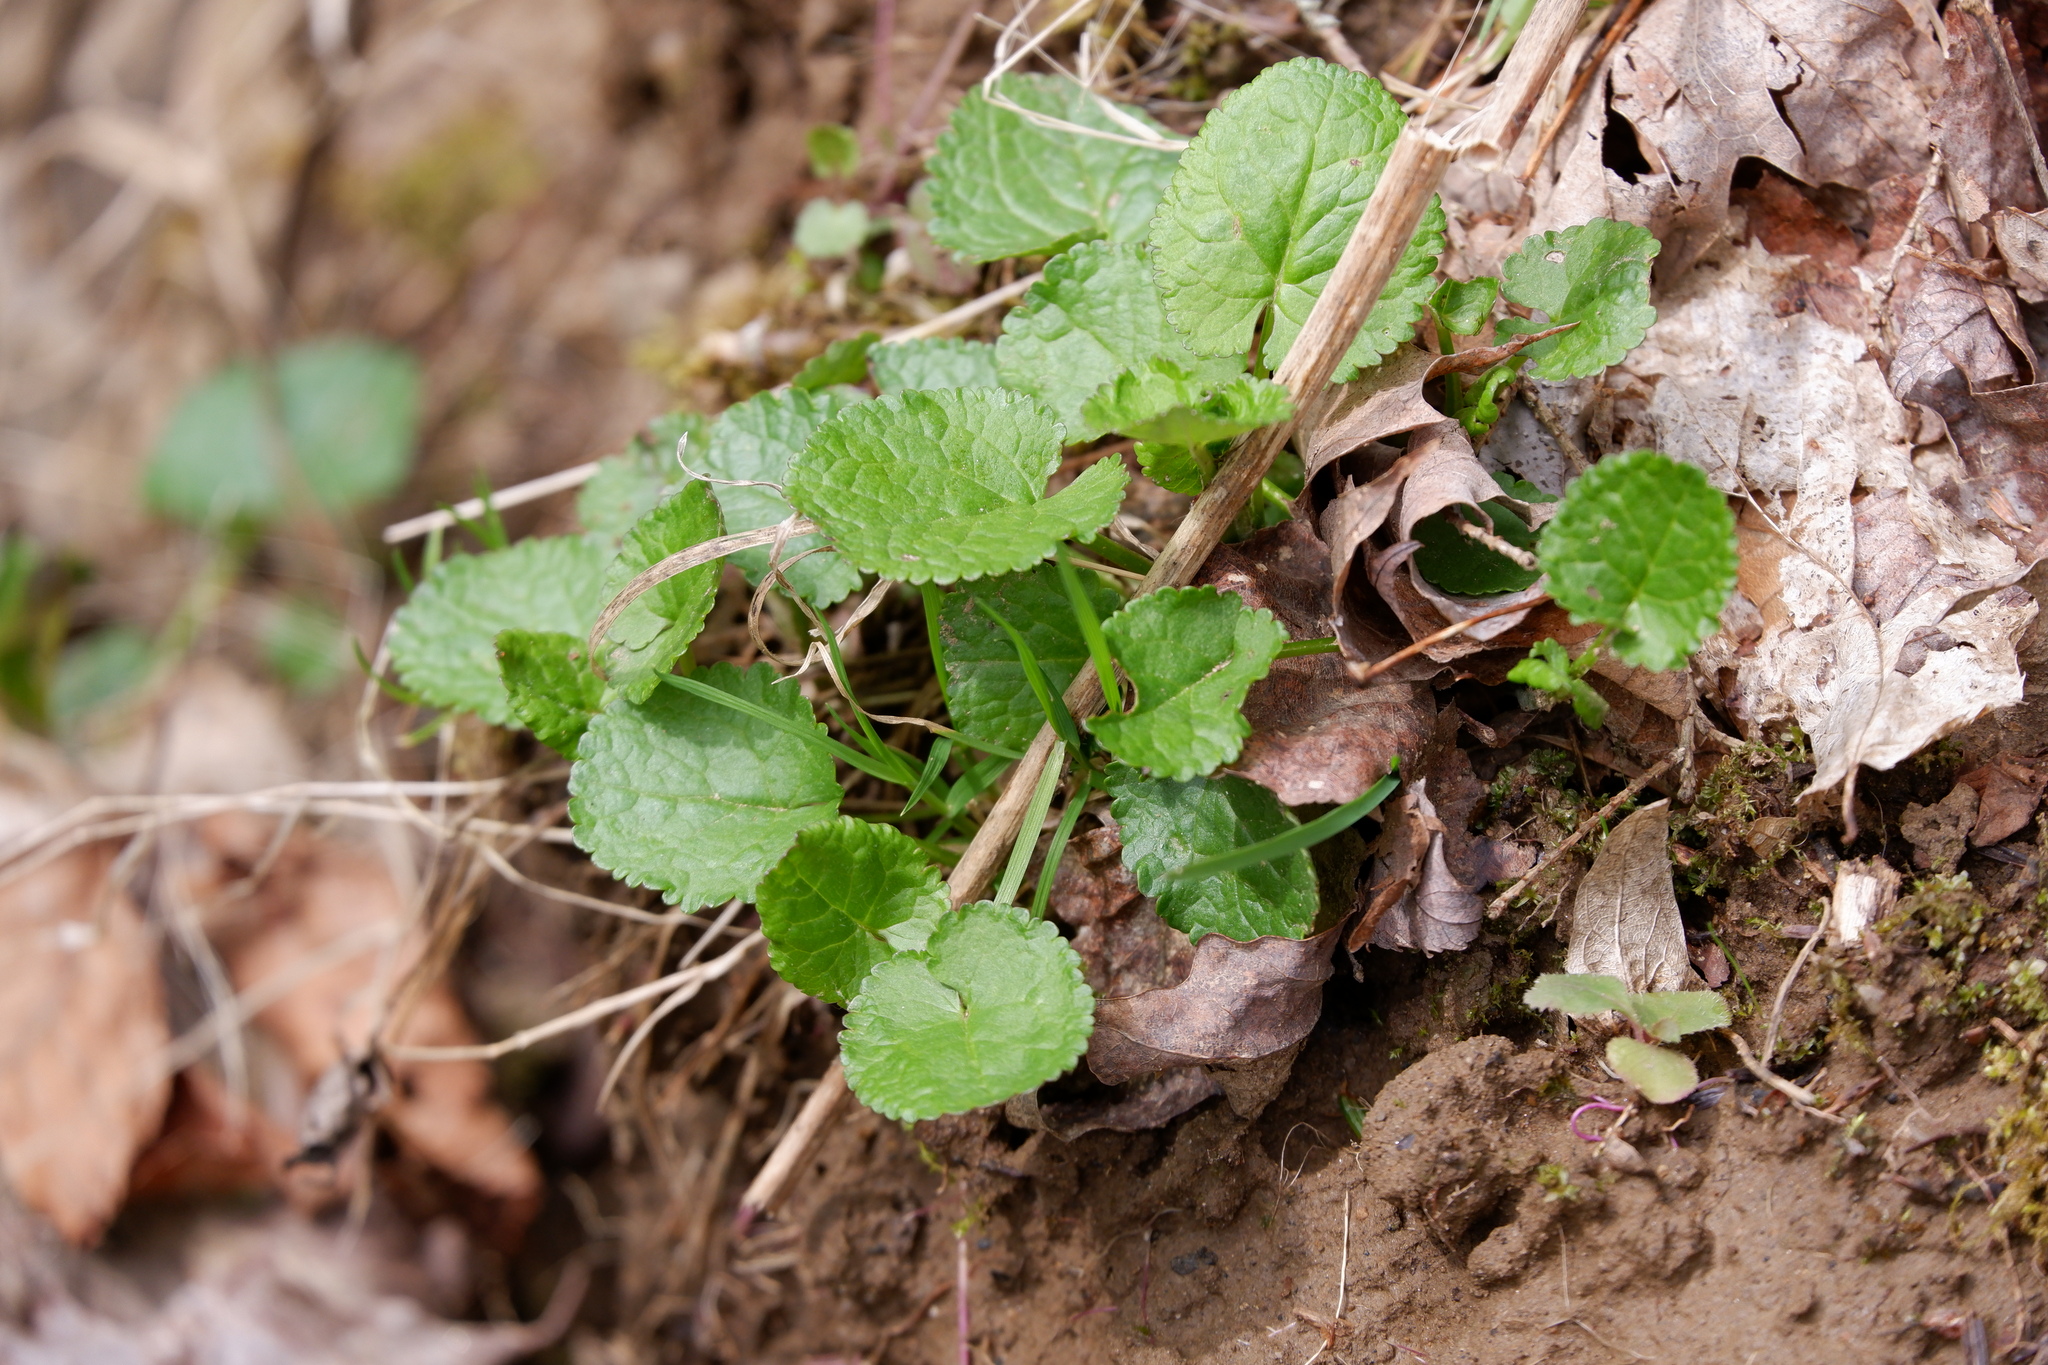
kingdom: Plantae
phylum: Tracheophyta
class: Magnoliopsida
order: Asterales
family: Asteraceae
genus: Packera
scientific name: Packera aurea
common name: Golden groundsel
